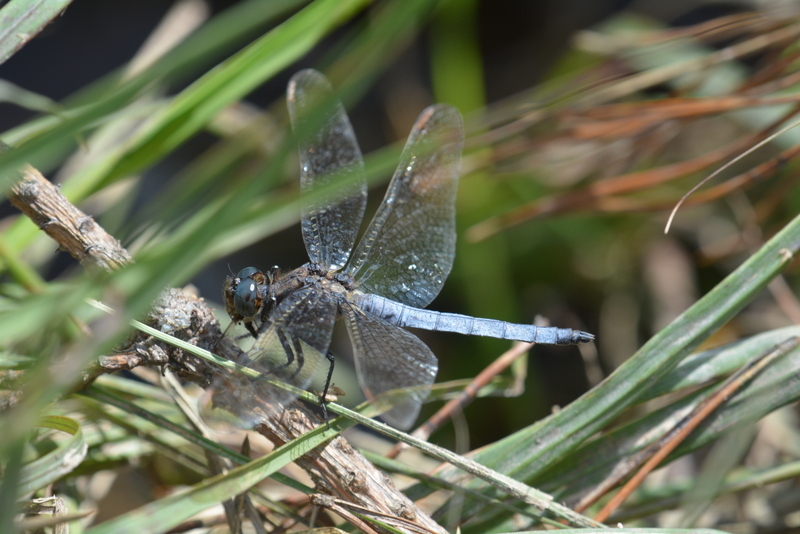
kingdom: Animalia
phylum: Arthropoda
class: Insecta
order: Odonata
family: Libellulidae
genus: Orthetrum
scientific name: Orthetrum coerulescens
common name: Keeled skimmer
